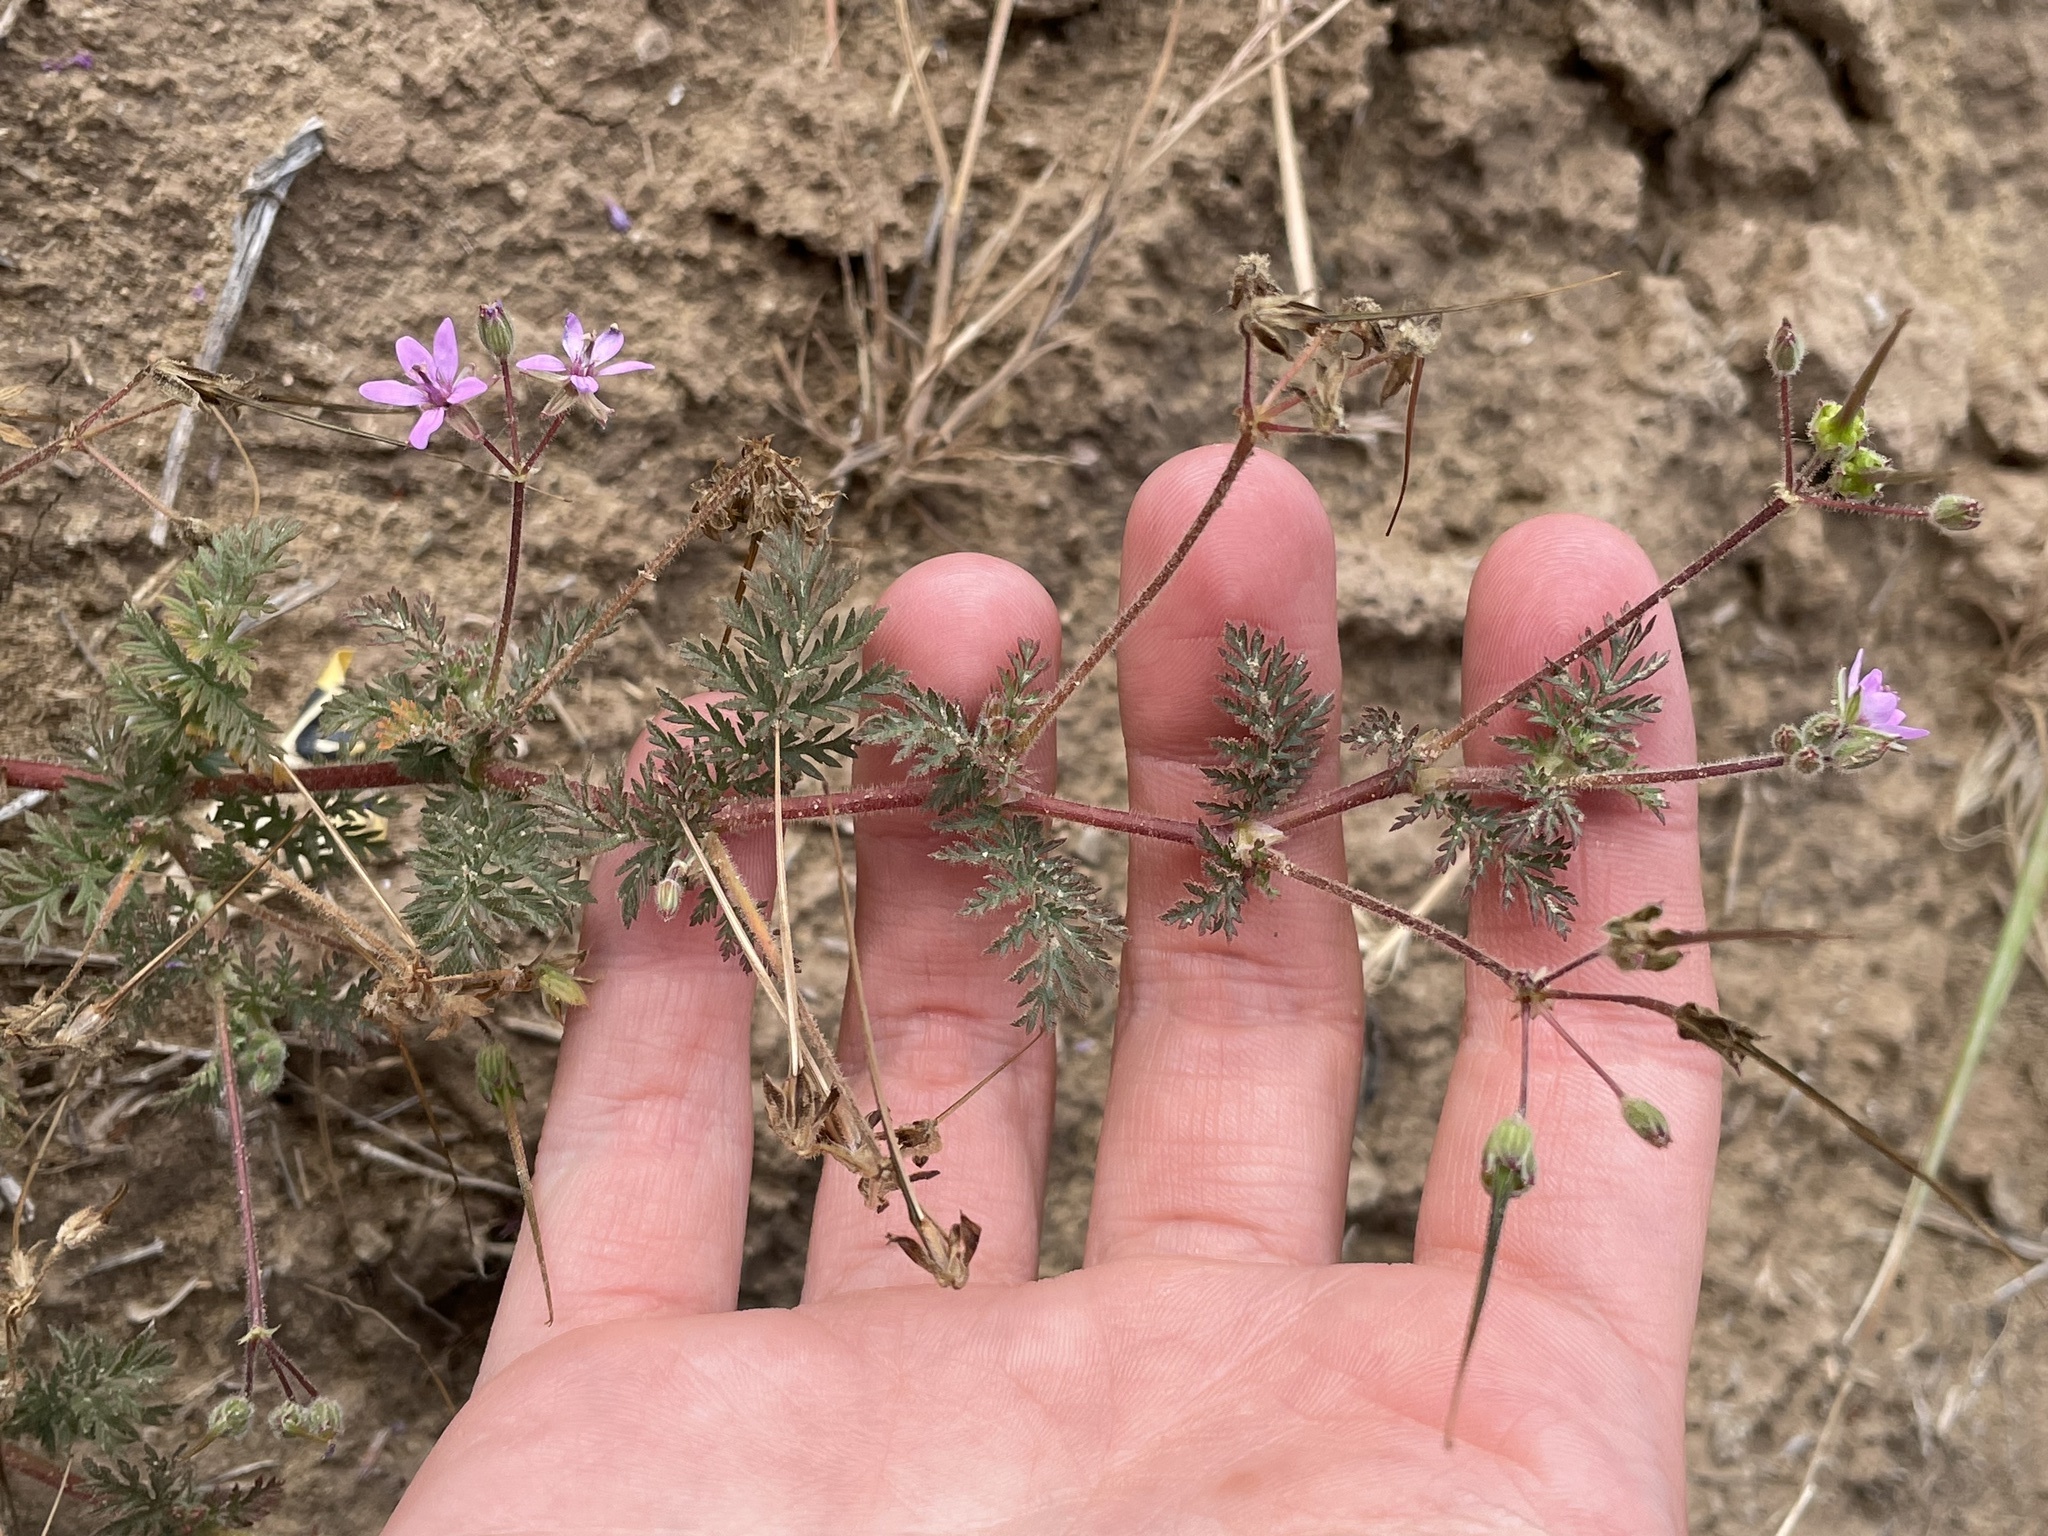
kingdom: Plantae
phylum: Tracheophyta
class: Magnoliopsida
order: Geraniales
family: Geraniaceae
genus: Erodium
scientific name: Erodium cicutarium
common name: Common stork's-bill
